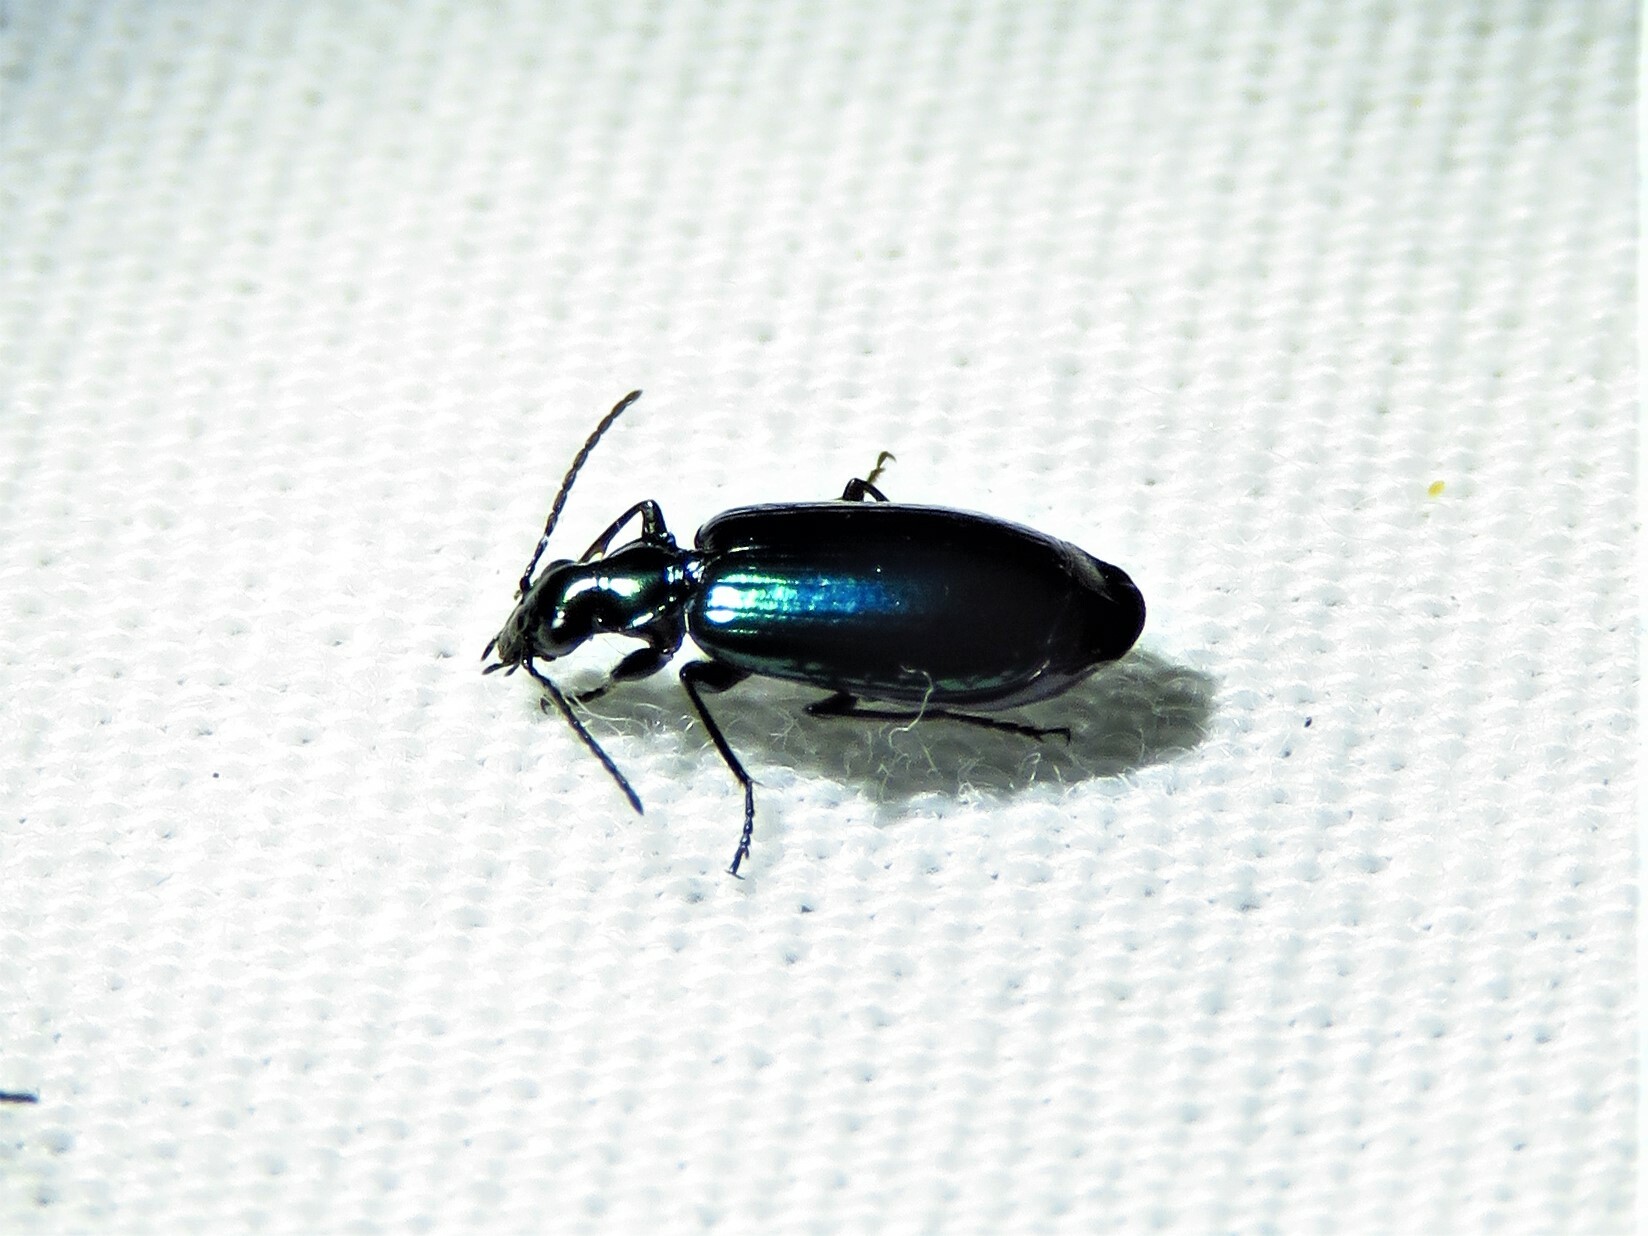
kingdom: Animalia
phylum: Arthropoda
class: Insecta
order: Coleoptera
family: Carabidae
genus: Lebia
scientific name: Lebia viridis
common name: Flower lebia beetle
